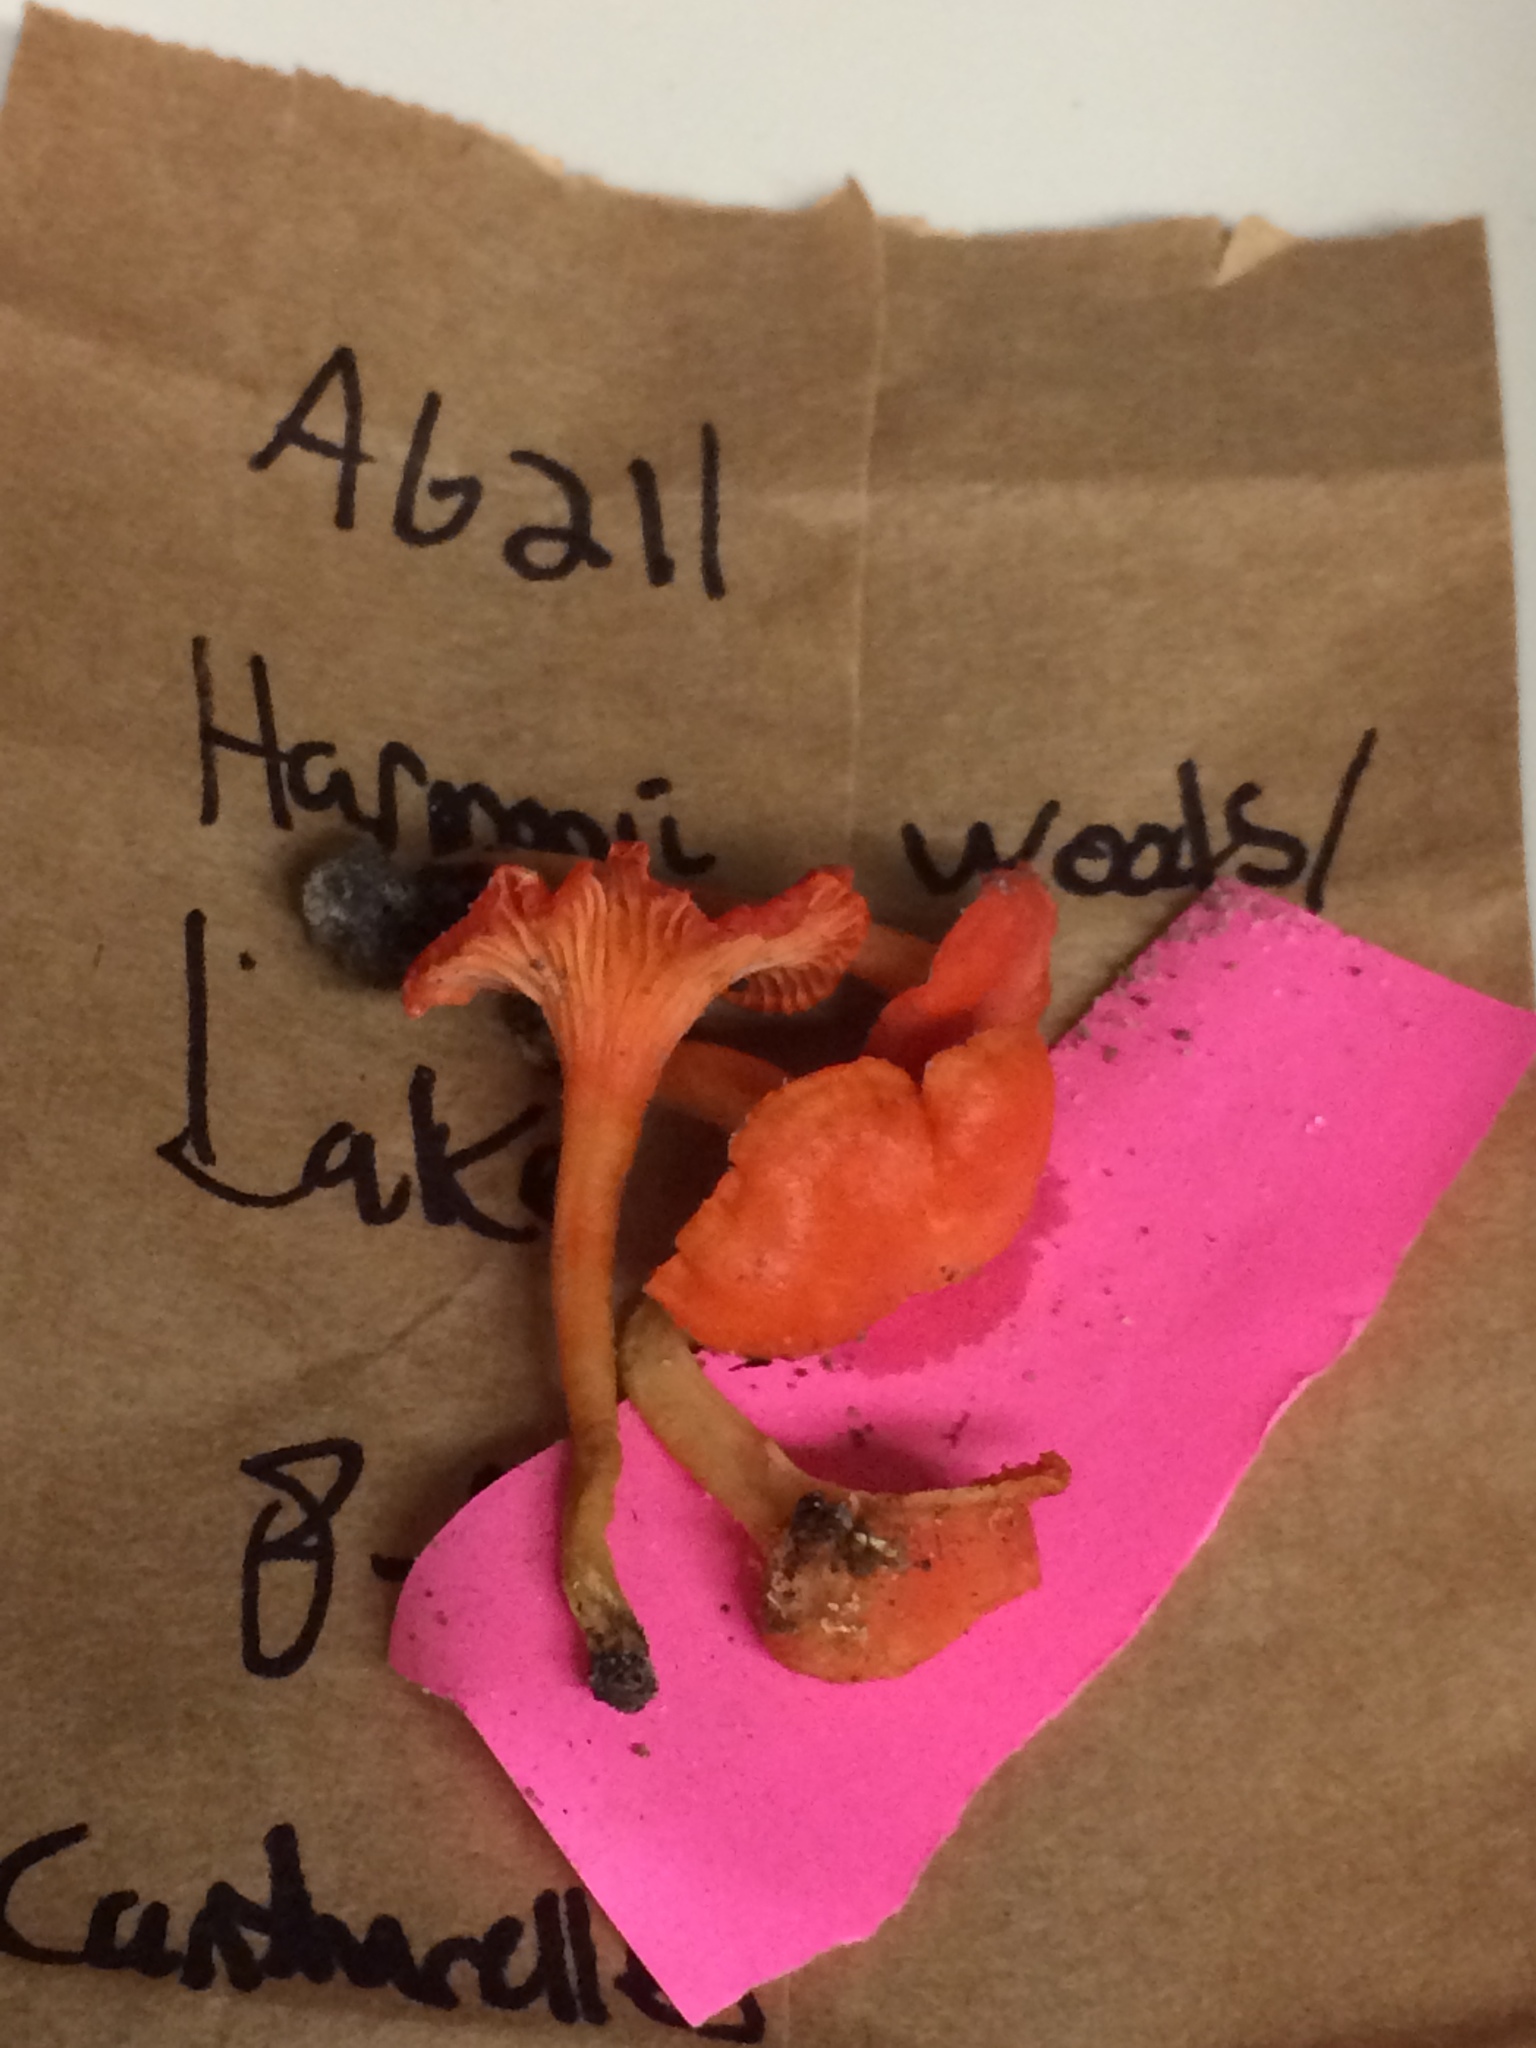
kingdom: Fungi
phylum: Basidiomycota
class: Agaricomycetes
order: Cantharellales
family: Hydnaceae
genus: Cantharellus
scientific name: Cantharellus cinnabarinus
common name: Cinnabar chanterelle
